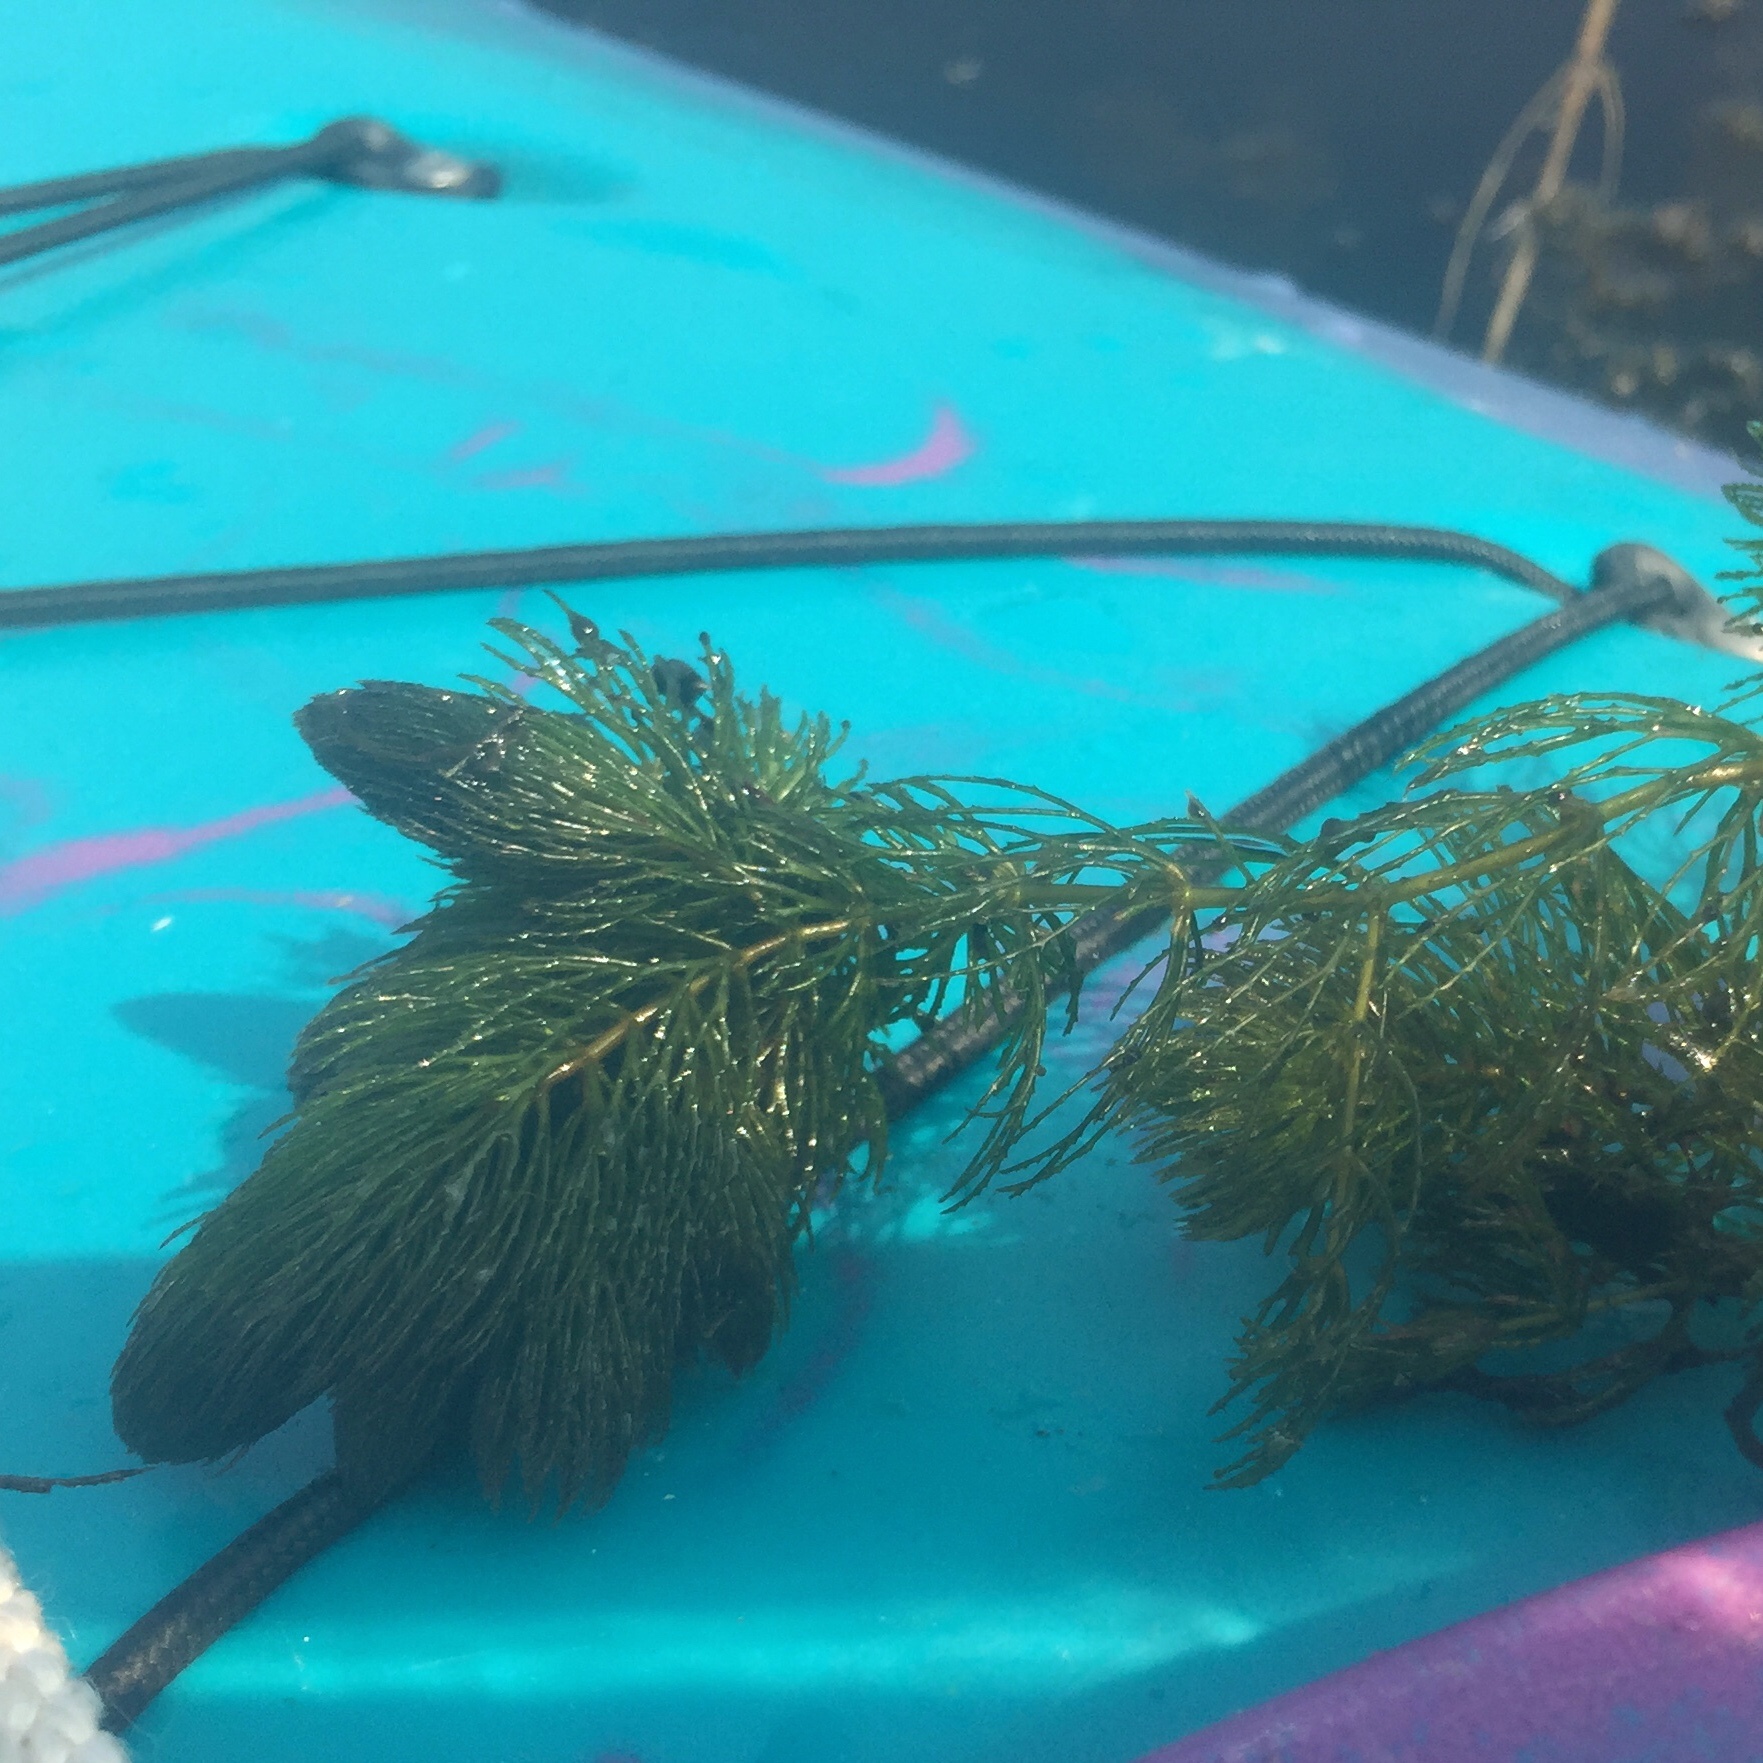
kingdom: Plantae
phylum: Tracheophyta
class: Magnoliopsida
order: Ceratophyllales
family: Ceratophyllaceae
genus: Ceratophyllum
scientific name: Ceratophyllum demersum
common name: Rigid hornwort
